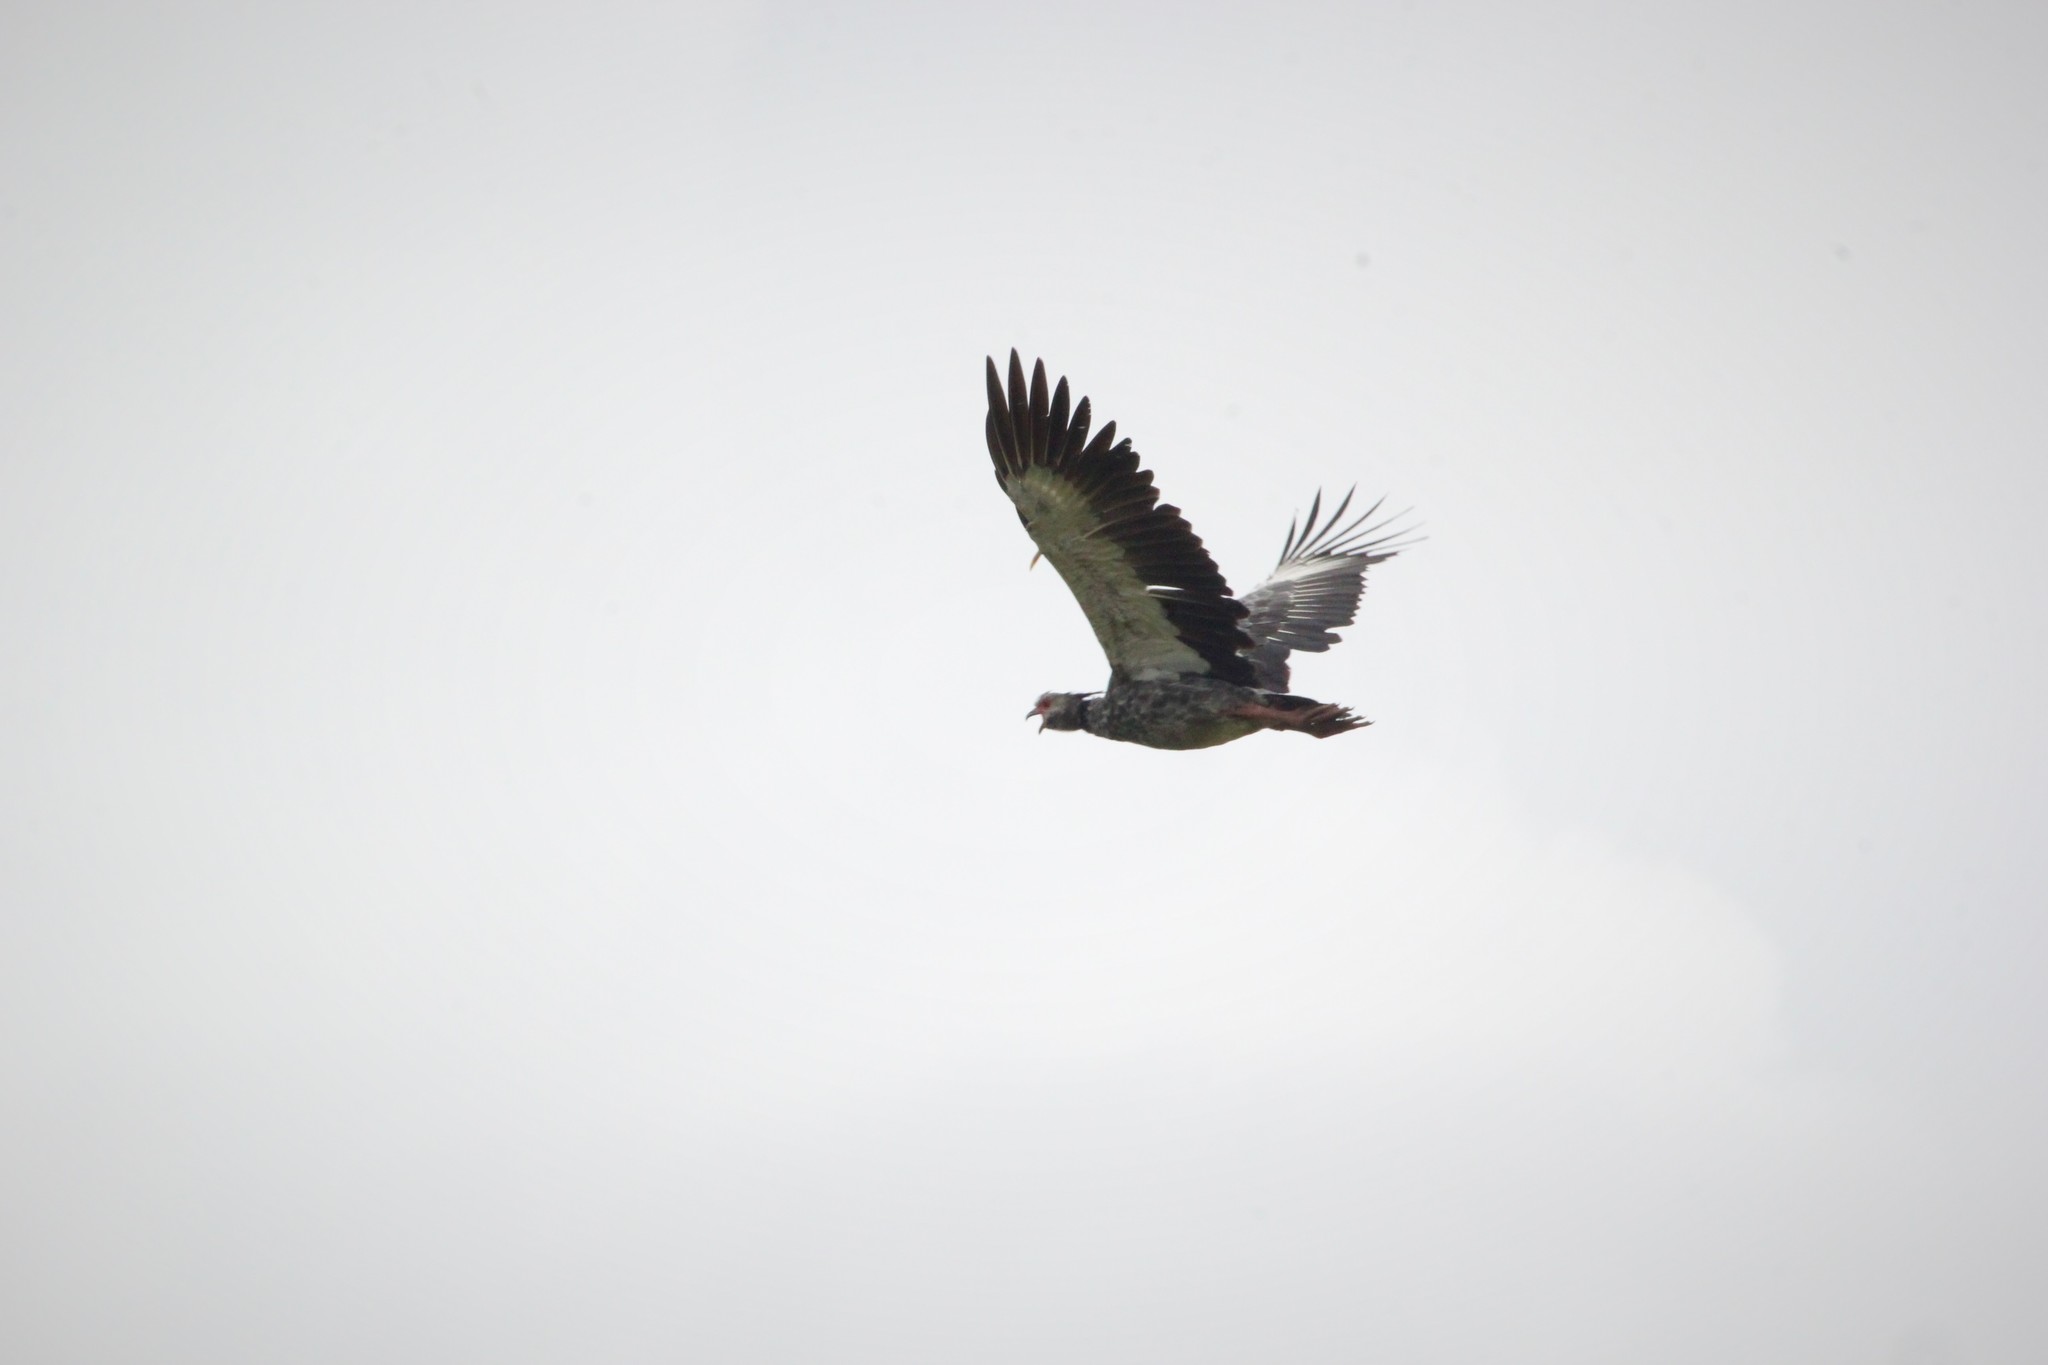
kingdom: Animalia
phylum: Chordata
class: Aves
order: Anseriformes
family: Anhimidae
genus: Chauna
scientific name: Chauna torquata
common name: Southern screamer
